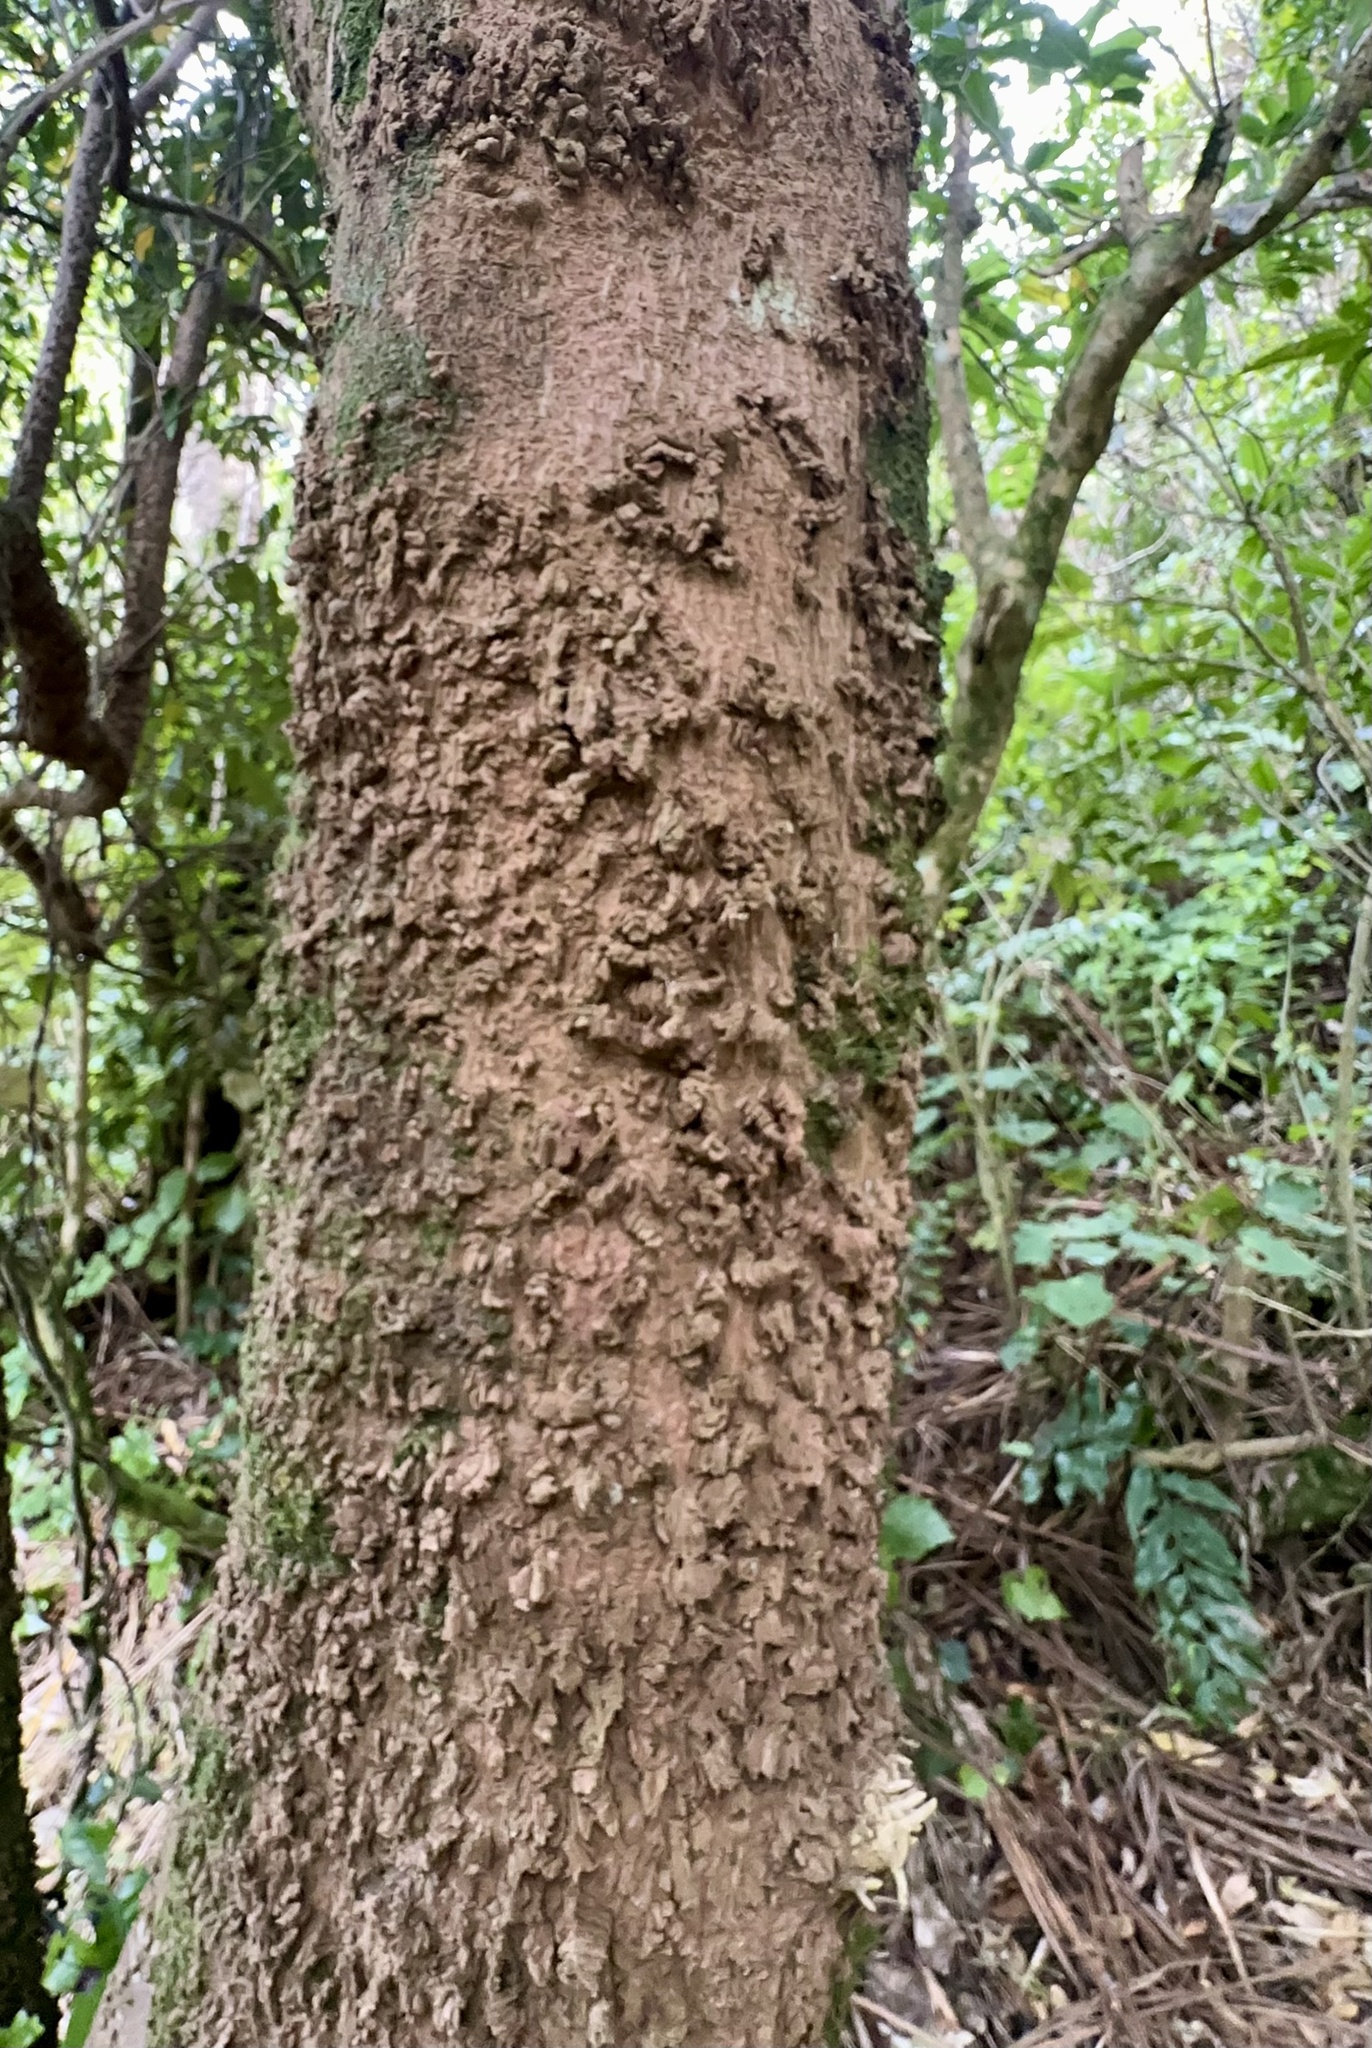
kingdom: Plantae
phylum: Tracheophyta
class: Magnoliopsida
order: Laurales
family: Monimiaceae
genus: Hedycarya
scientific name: Hedycarya arborea
